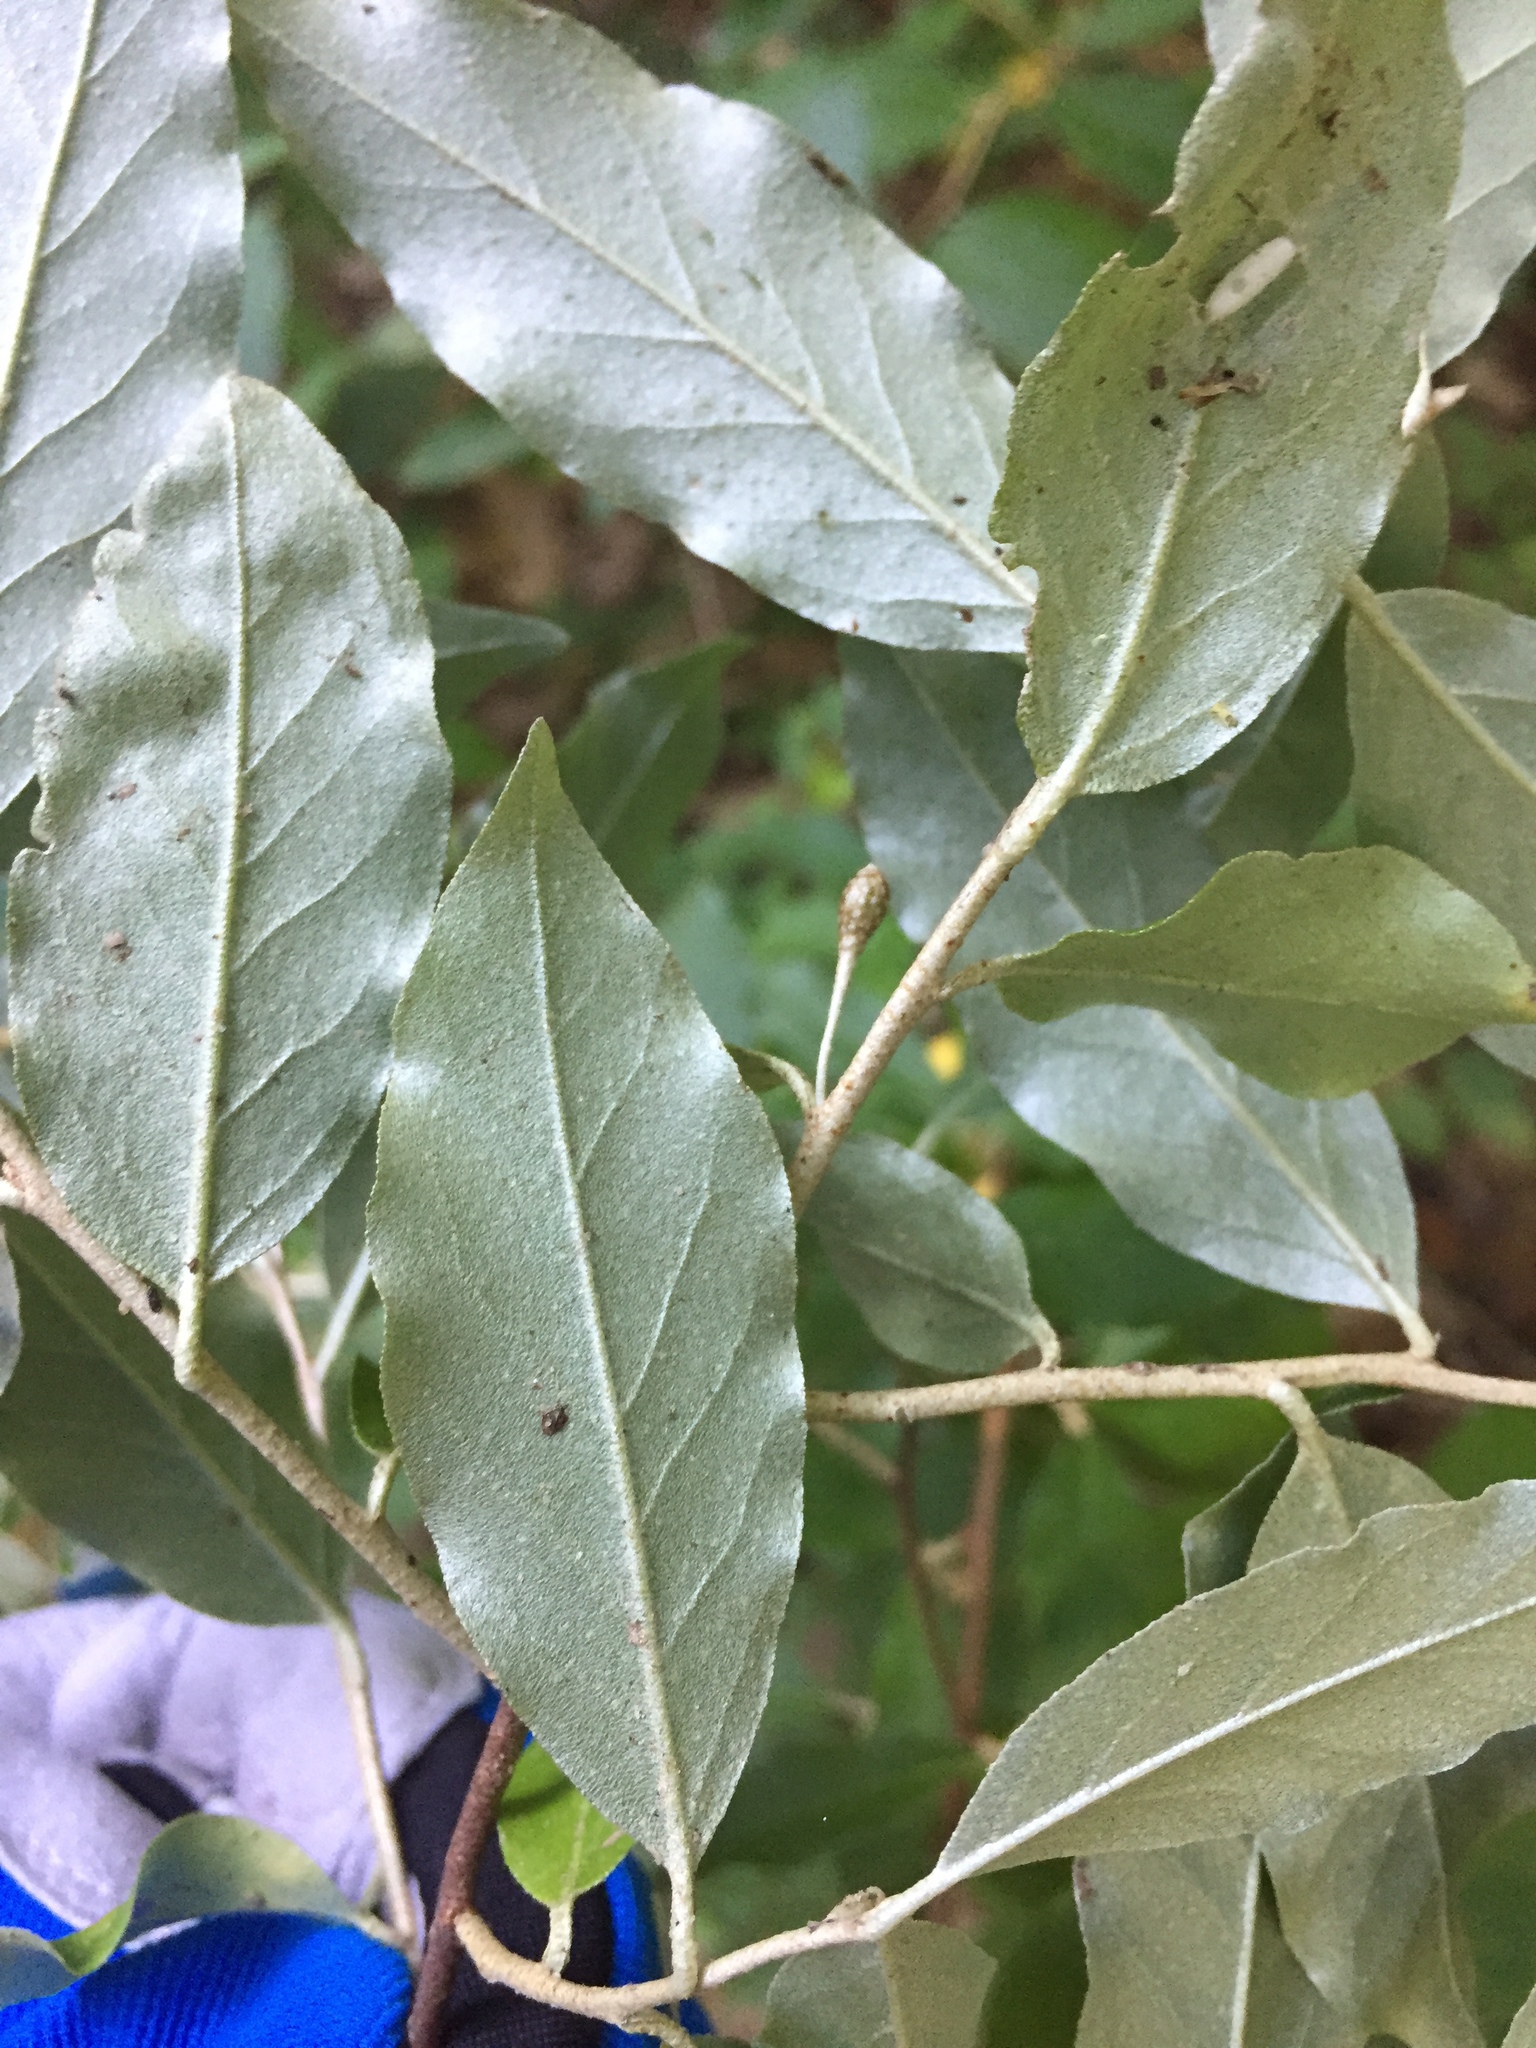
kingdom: Plantae
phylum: Tracheophyta
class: Magnoliopsida
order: Rosales
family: Elaeagnaceae
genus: Elaeagnus
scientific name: Elaeagnus umbellata
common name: Autumn olive
